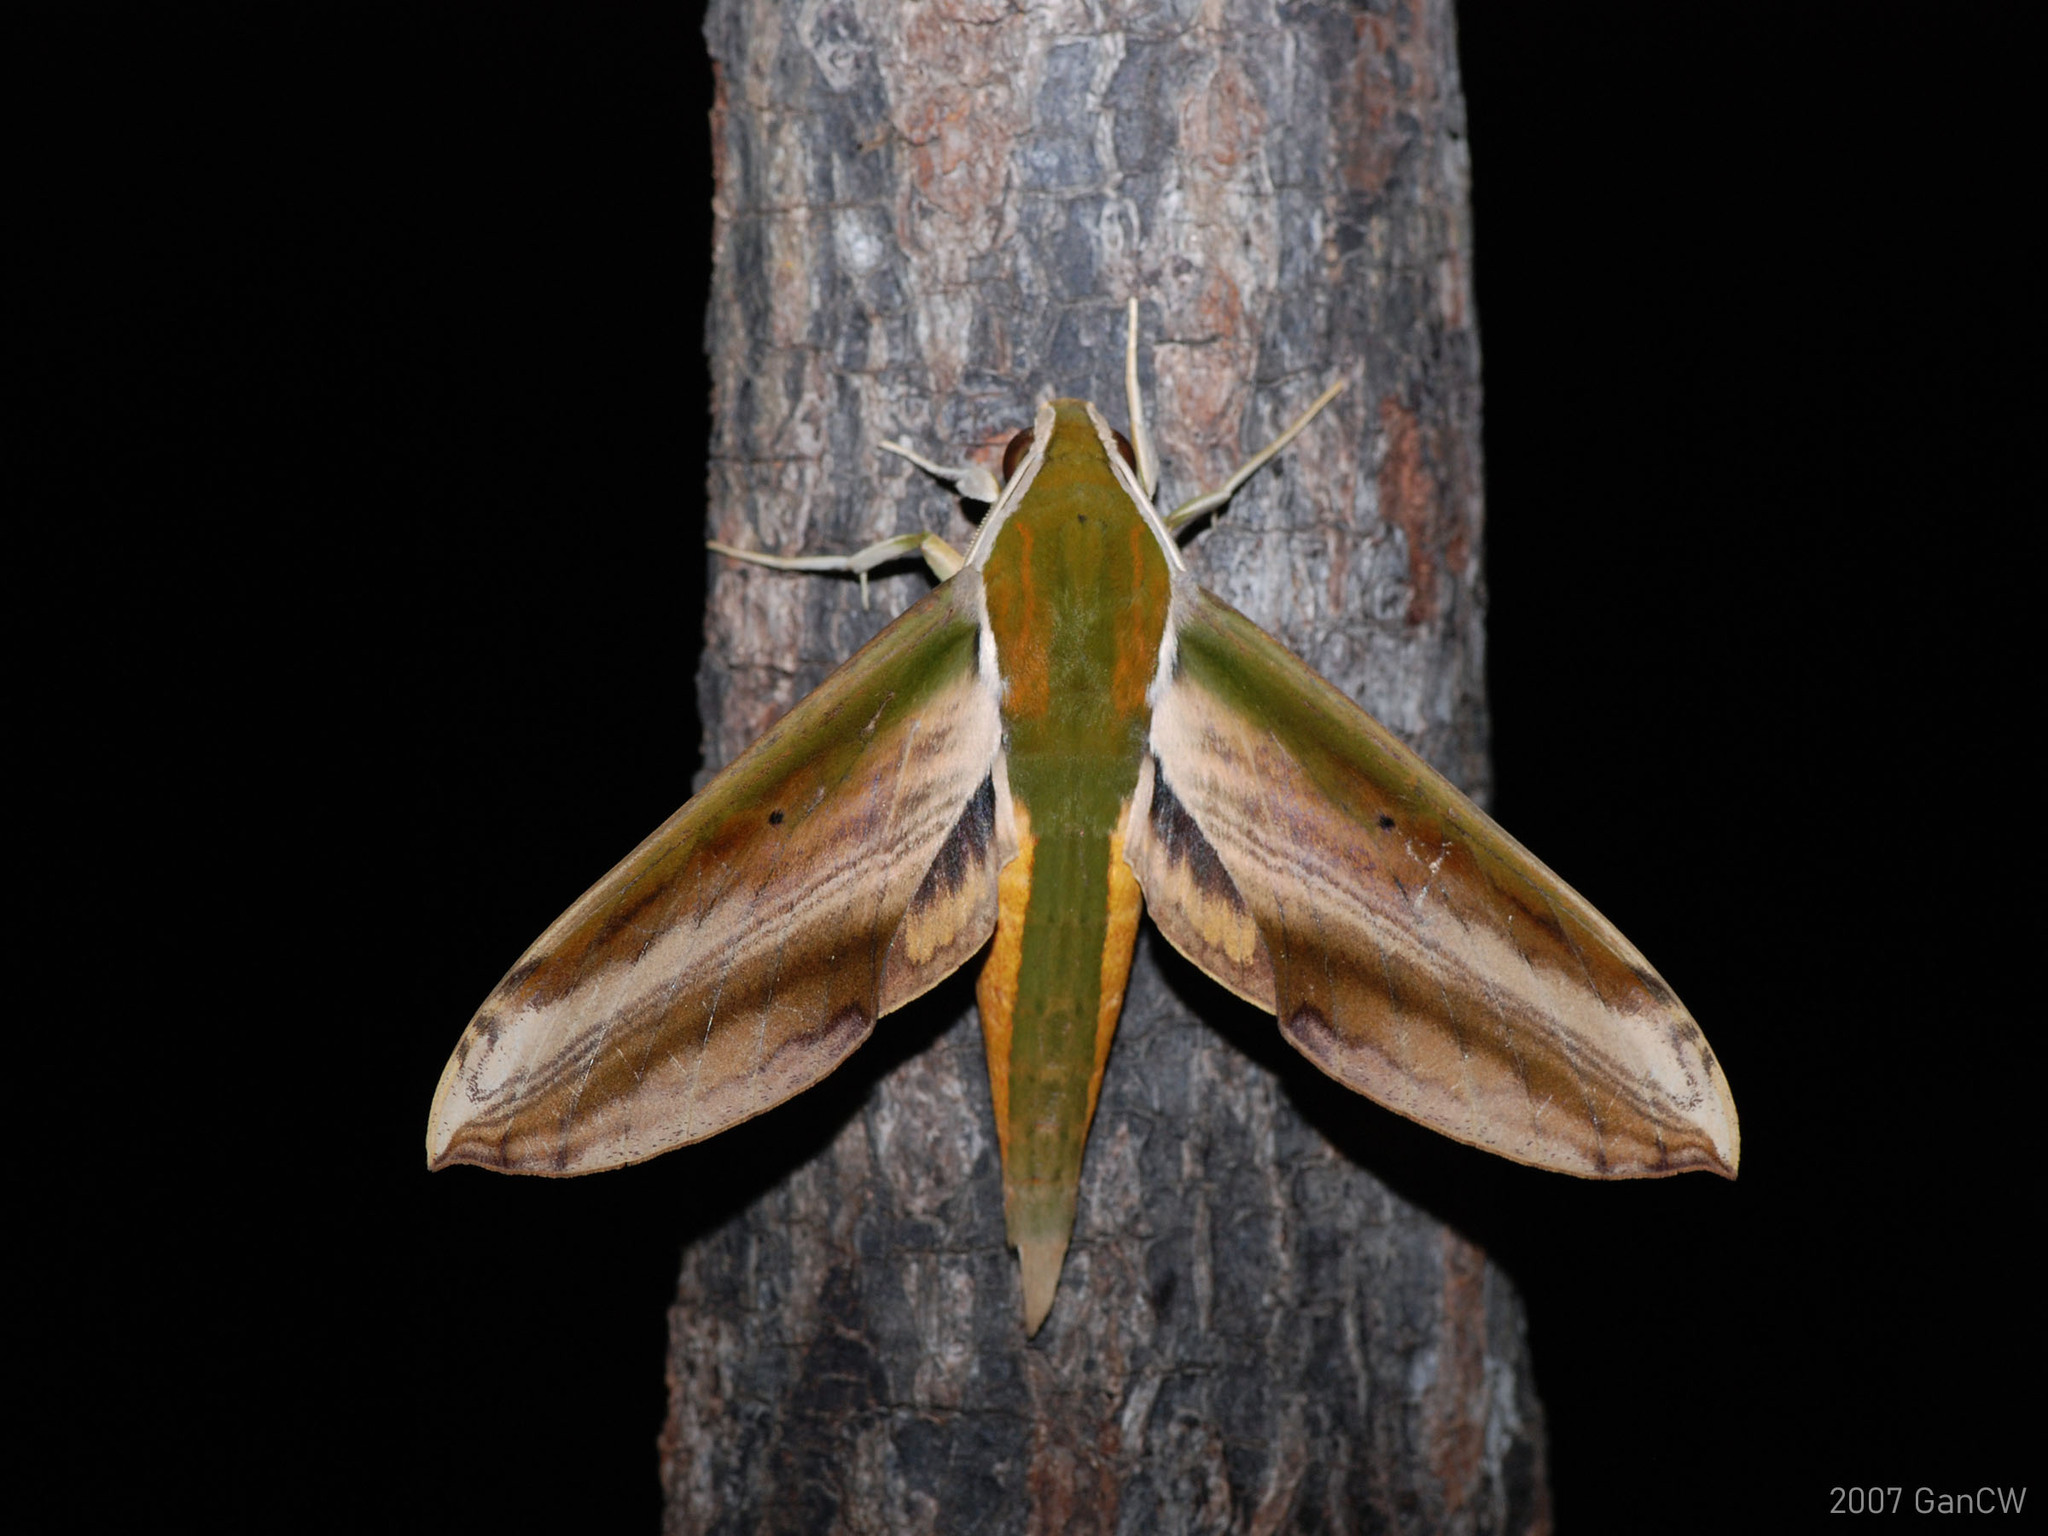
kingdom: Animalia
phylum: Arthropoda
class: Insecta
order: Lepidoptera
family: Sphingidae
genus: Theretra
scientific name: Theretra nessus
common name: Yam hawk moth
